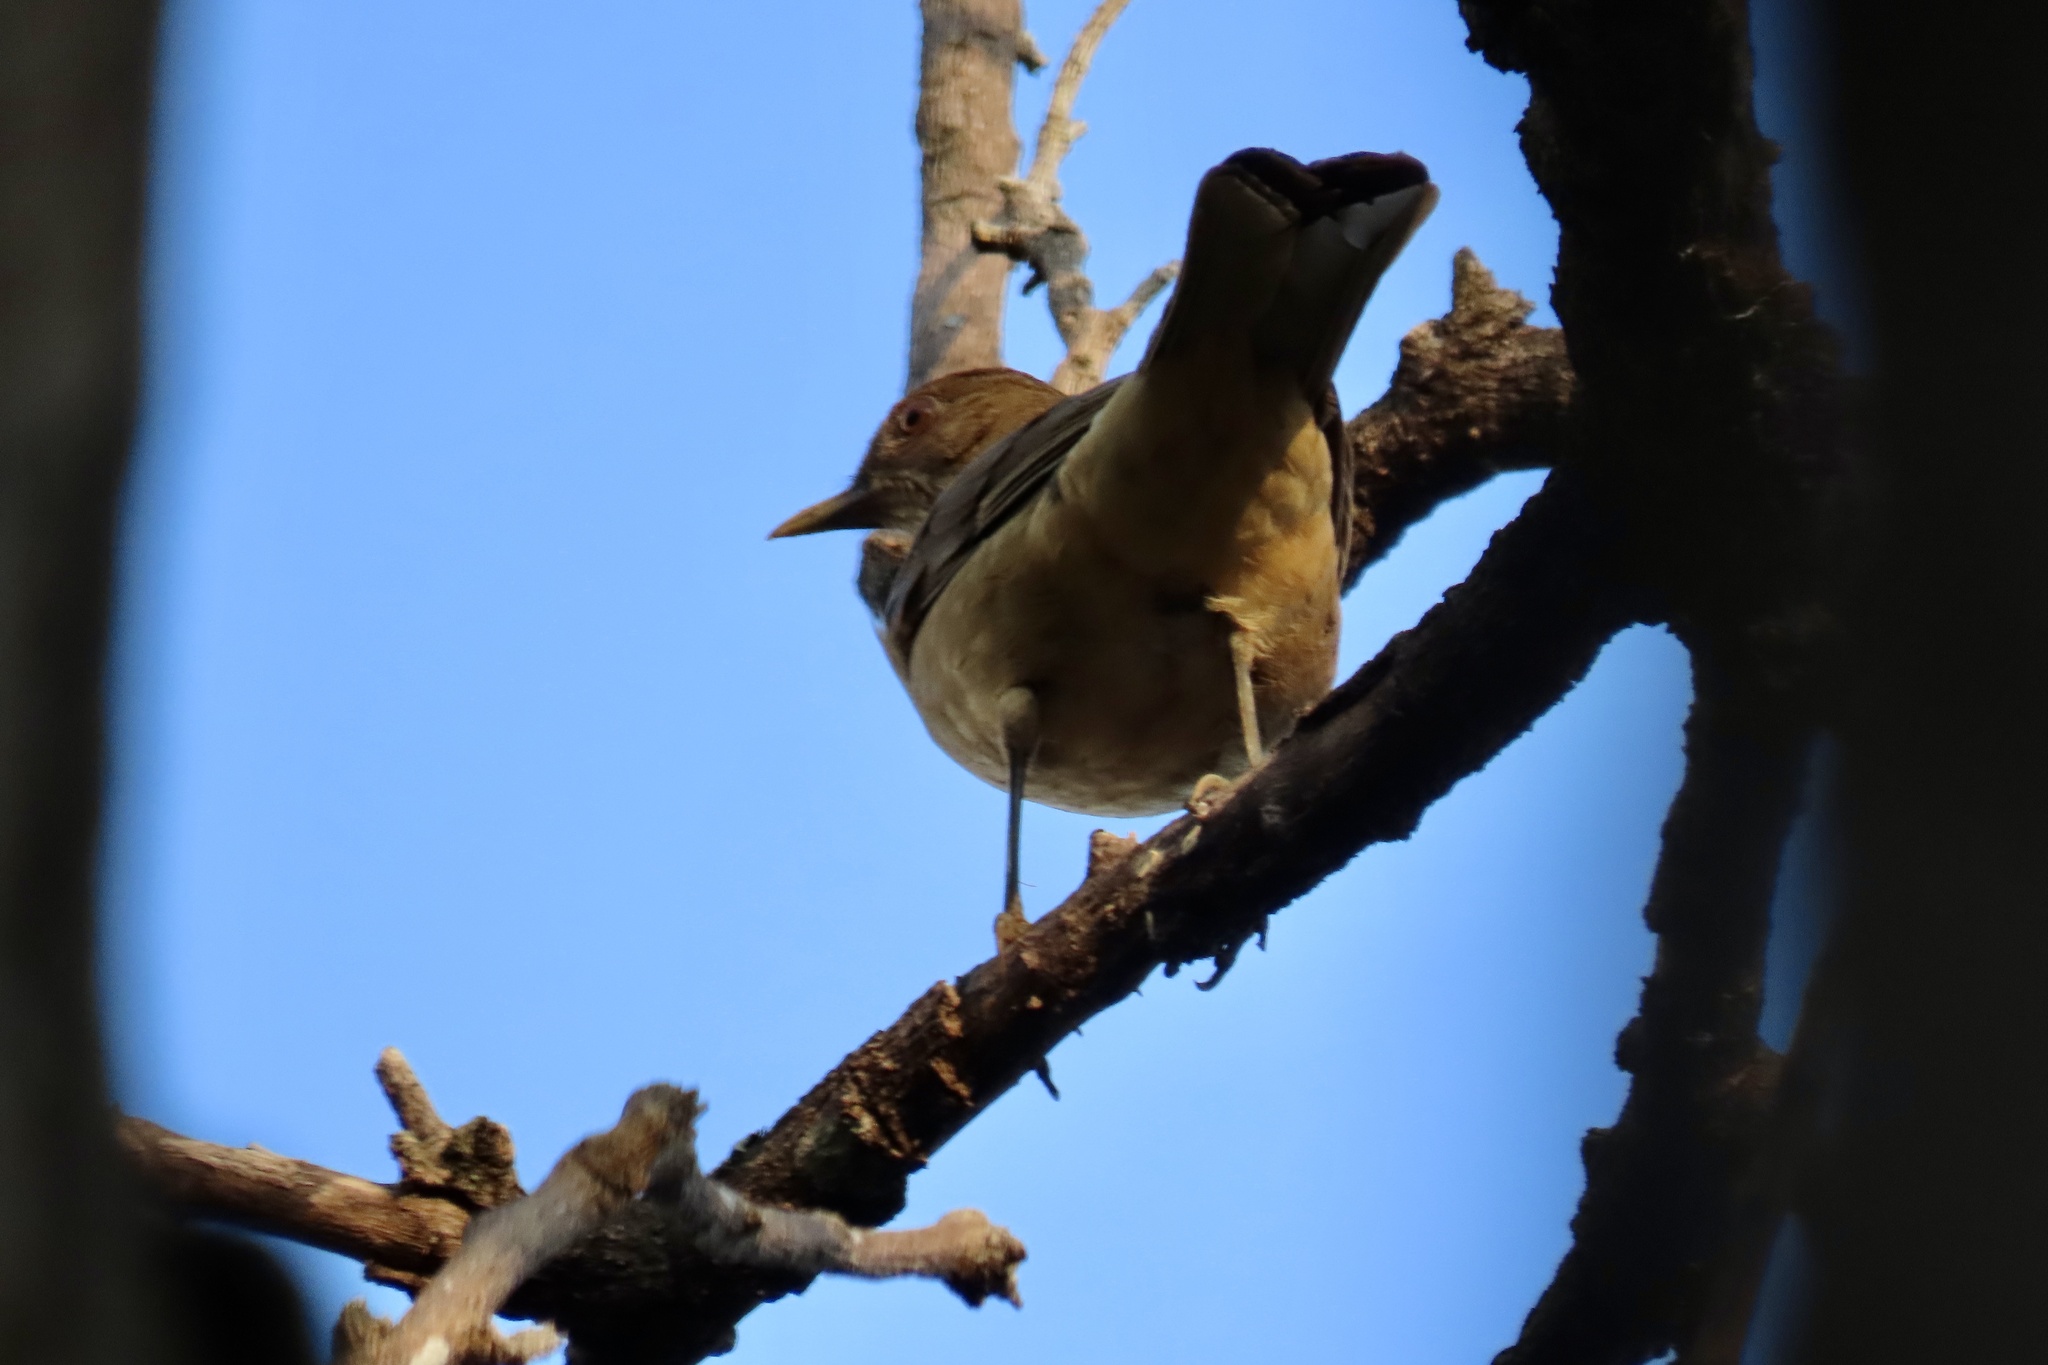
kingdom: Animalia
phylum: Chordata
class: Aves
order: Passeriformes
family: Turdidae
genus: Turdus
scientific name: Turdus grayi
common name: Clay-colored thrush
